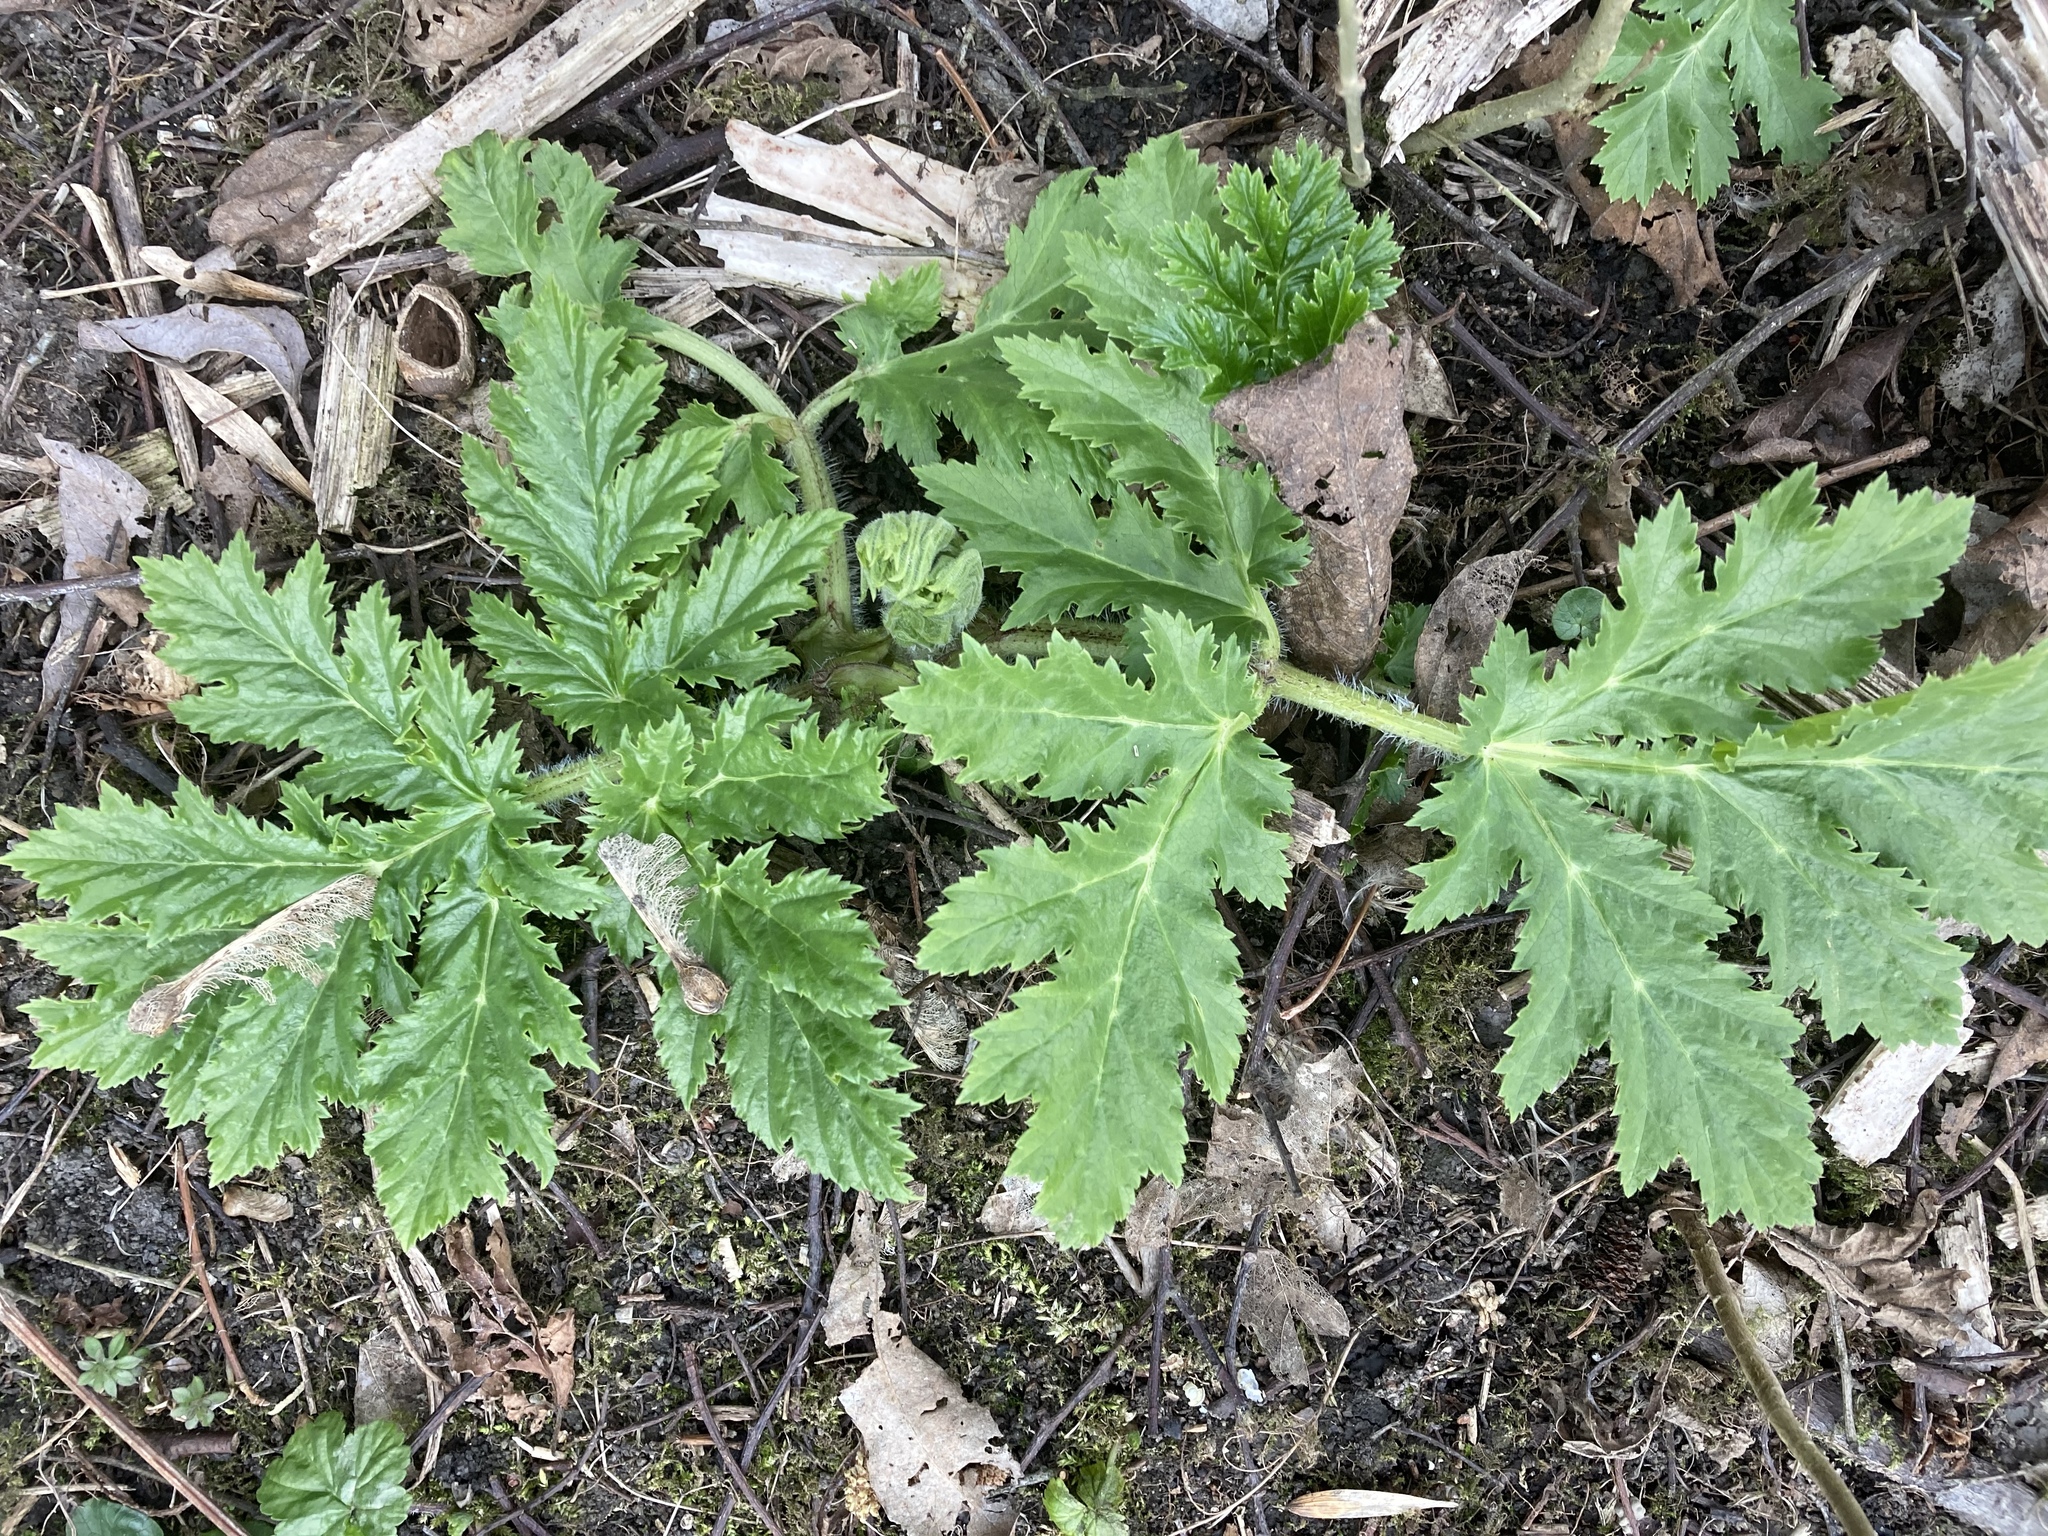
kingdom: Plantae
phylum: Tracheophyta
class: Magnoliopsida
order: Apiales
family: Apiaceae
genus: Heracleum
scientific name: Heracleum mantegazzianum
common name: Giant hogweed
